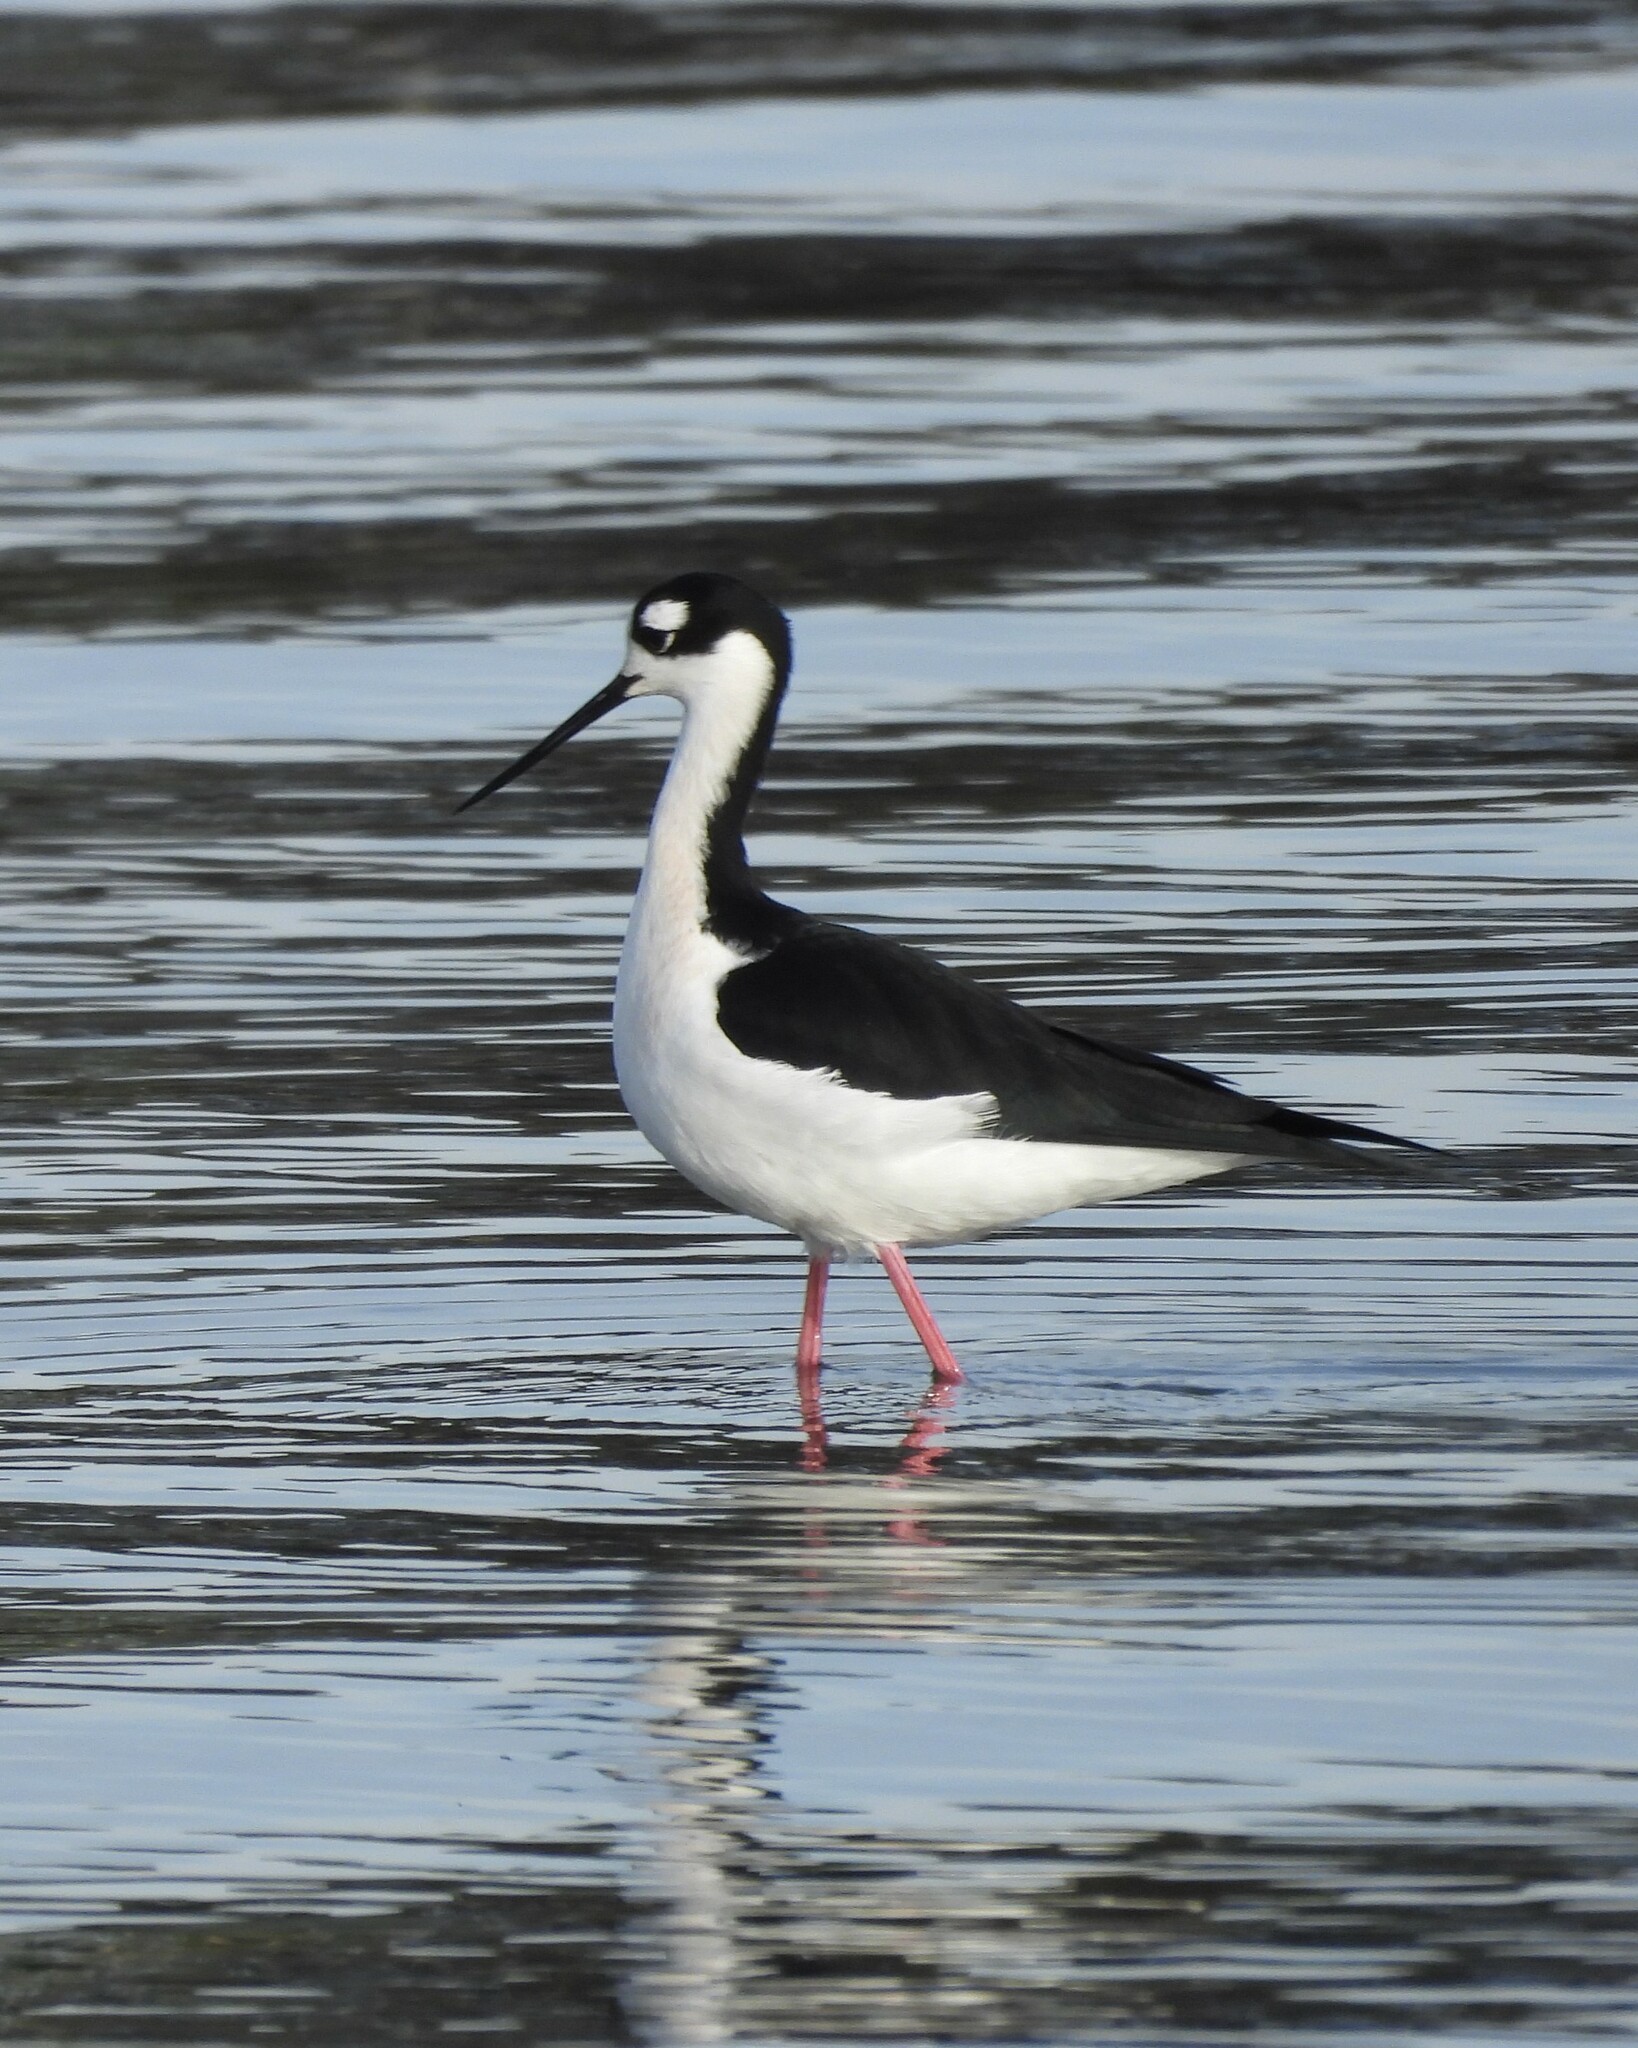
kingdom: Animalia
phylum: Chordata
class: Aves
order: Charadriiformes
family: Recurvirostridae
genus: Himantopus
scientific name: Himantopus mexicanus
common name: Black-necked stilt
